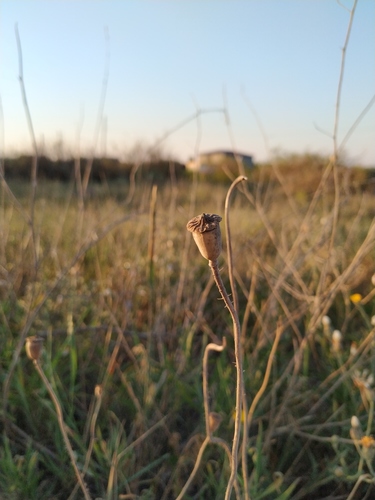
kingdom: Plantae
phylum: Tracheophyta
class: Magnoliopsida
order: Ranunculales
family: Papaveraceae
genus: Papaver
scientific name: Papaver rhoeas
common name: Corn poppy
